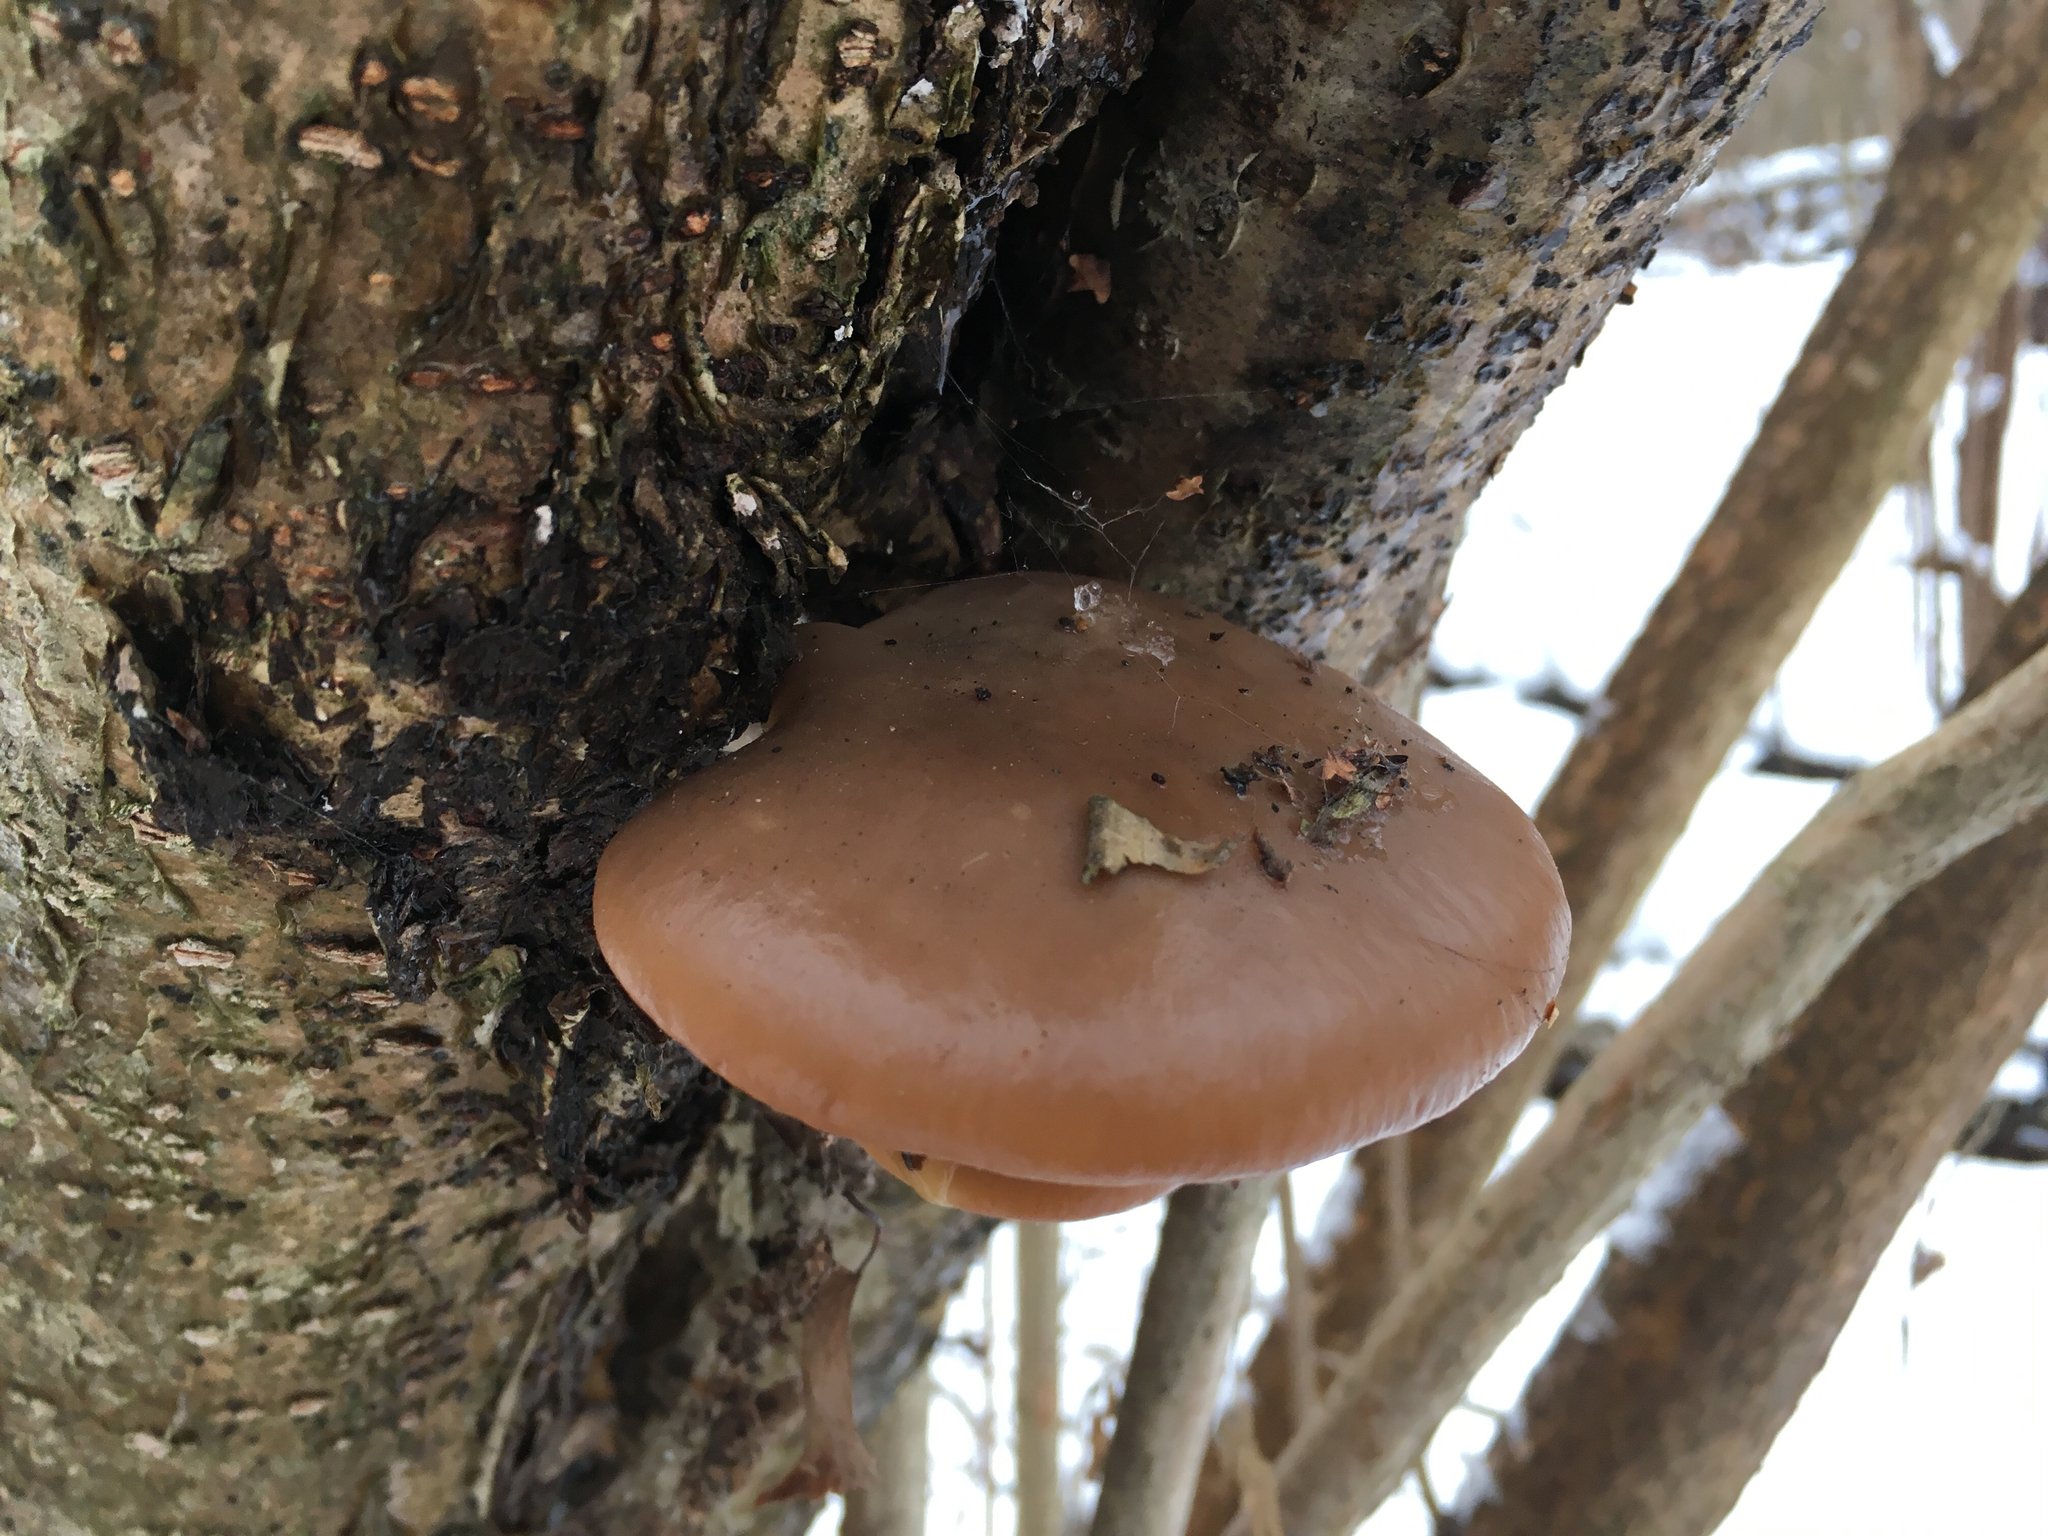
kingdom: Fungi
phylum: Basidiomycota
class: Agaricomycetes
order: Agaricales
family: Pleurotaceae
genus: Pleurotus
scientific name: Pleurotus ostreatus
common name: Oyster mushroom
